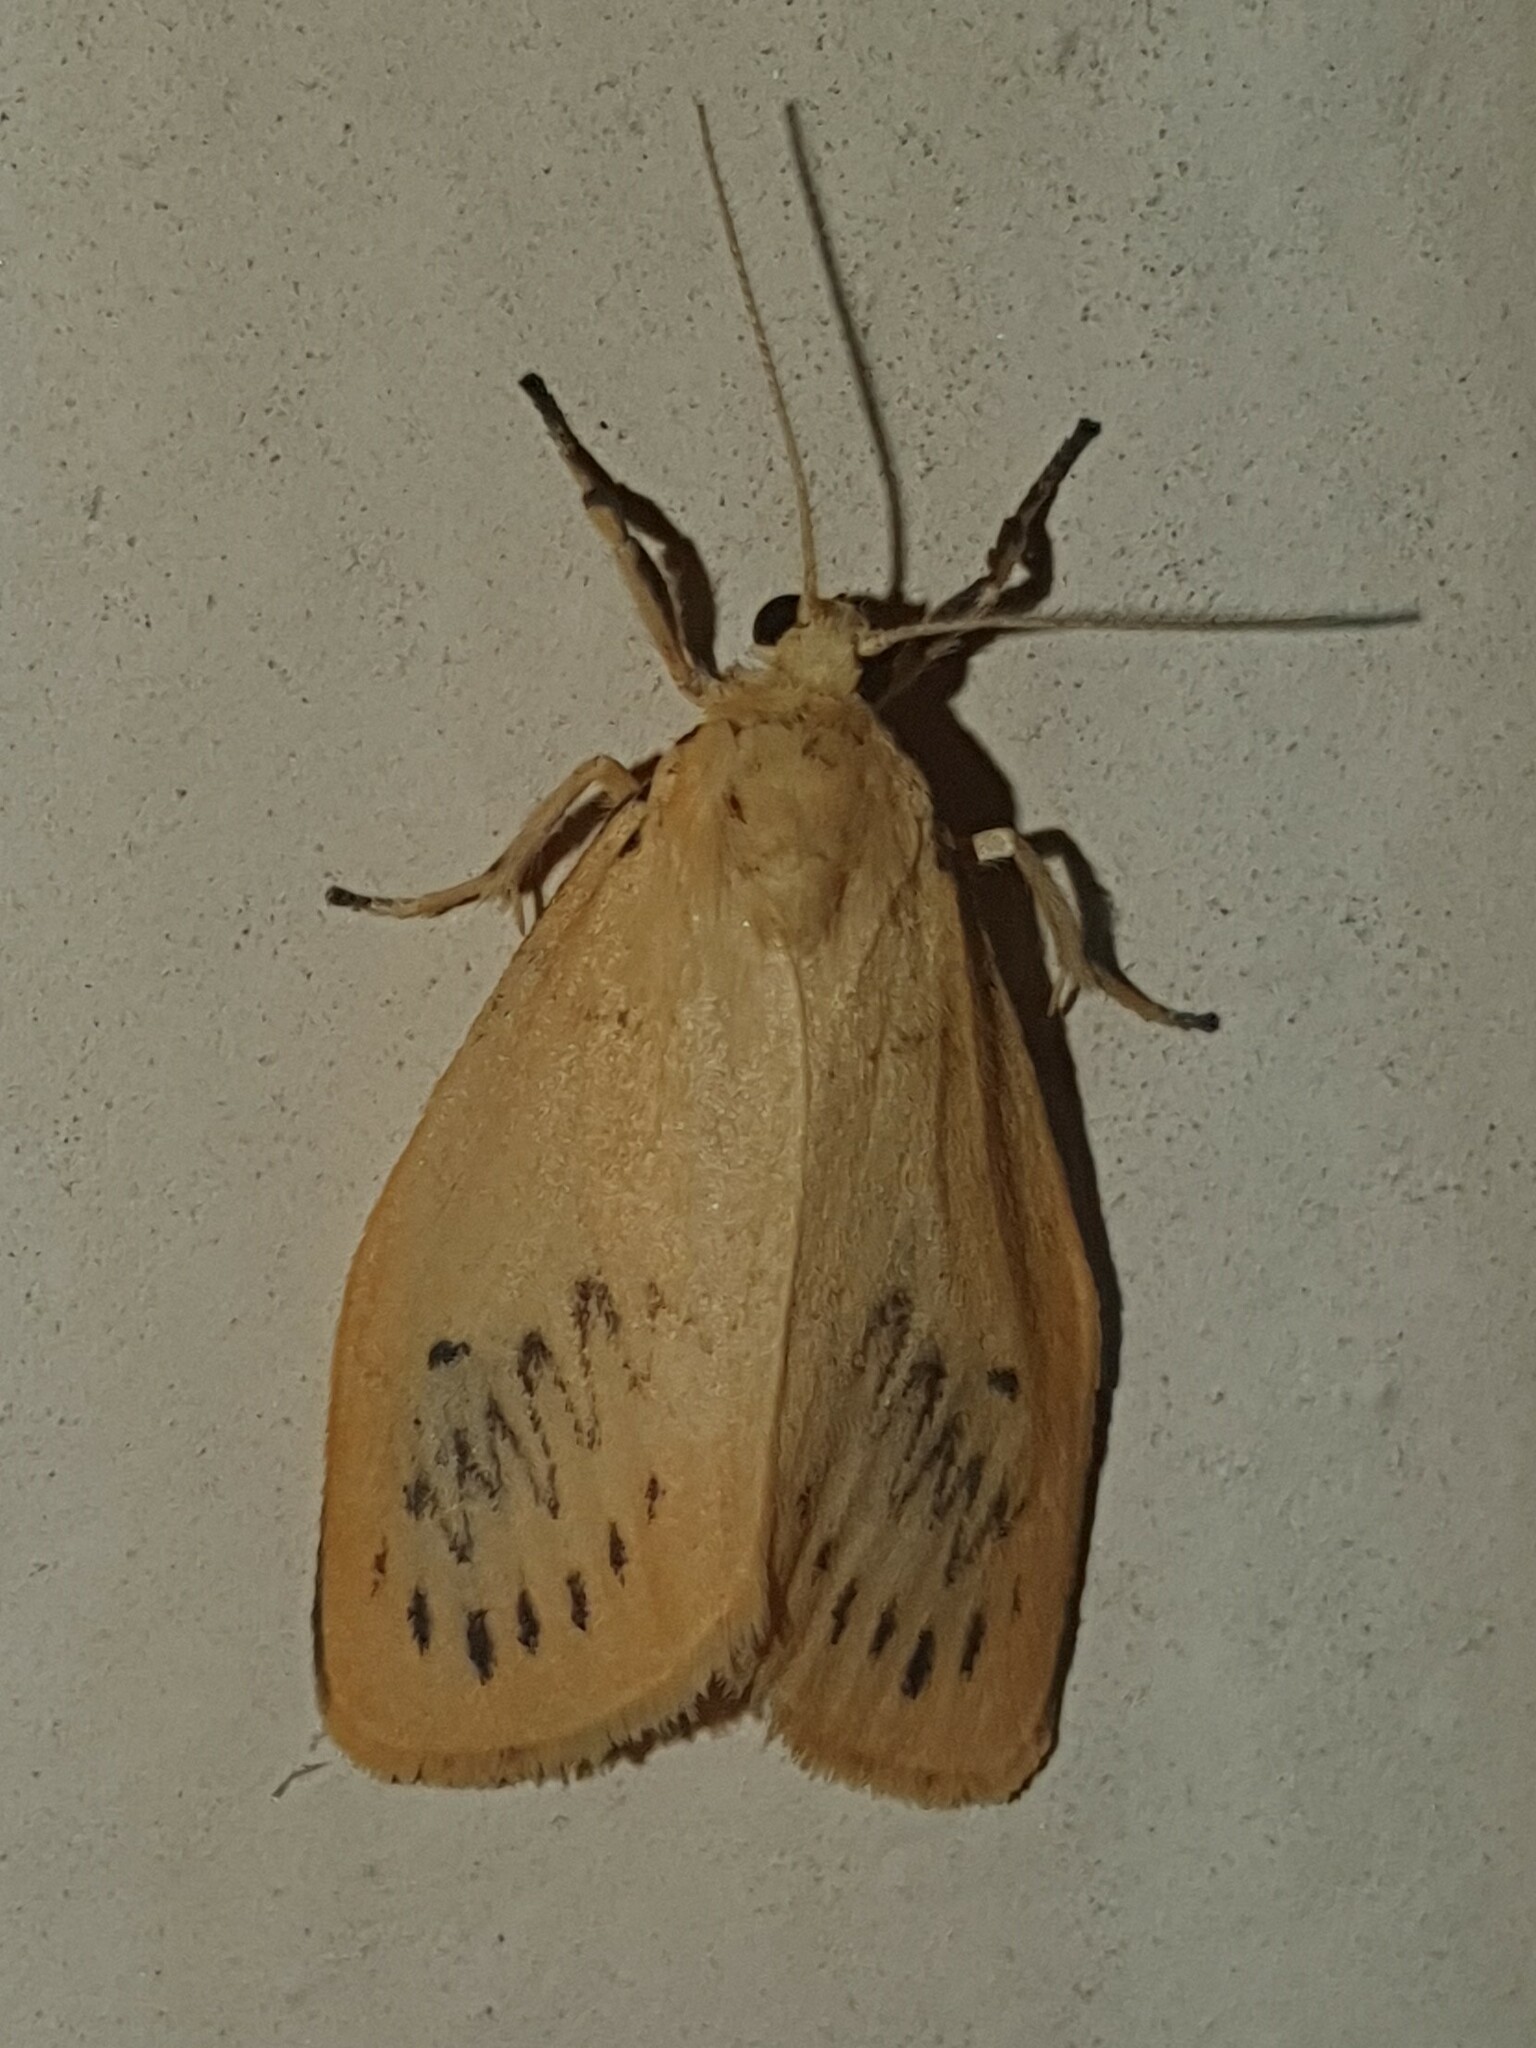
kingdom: Animalia
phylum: Arthropoda
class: Insecta
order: Lepidoptera
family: Erebidae
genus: Miltochrista
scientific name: Miltochrista miniata
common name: Rosy footman
